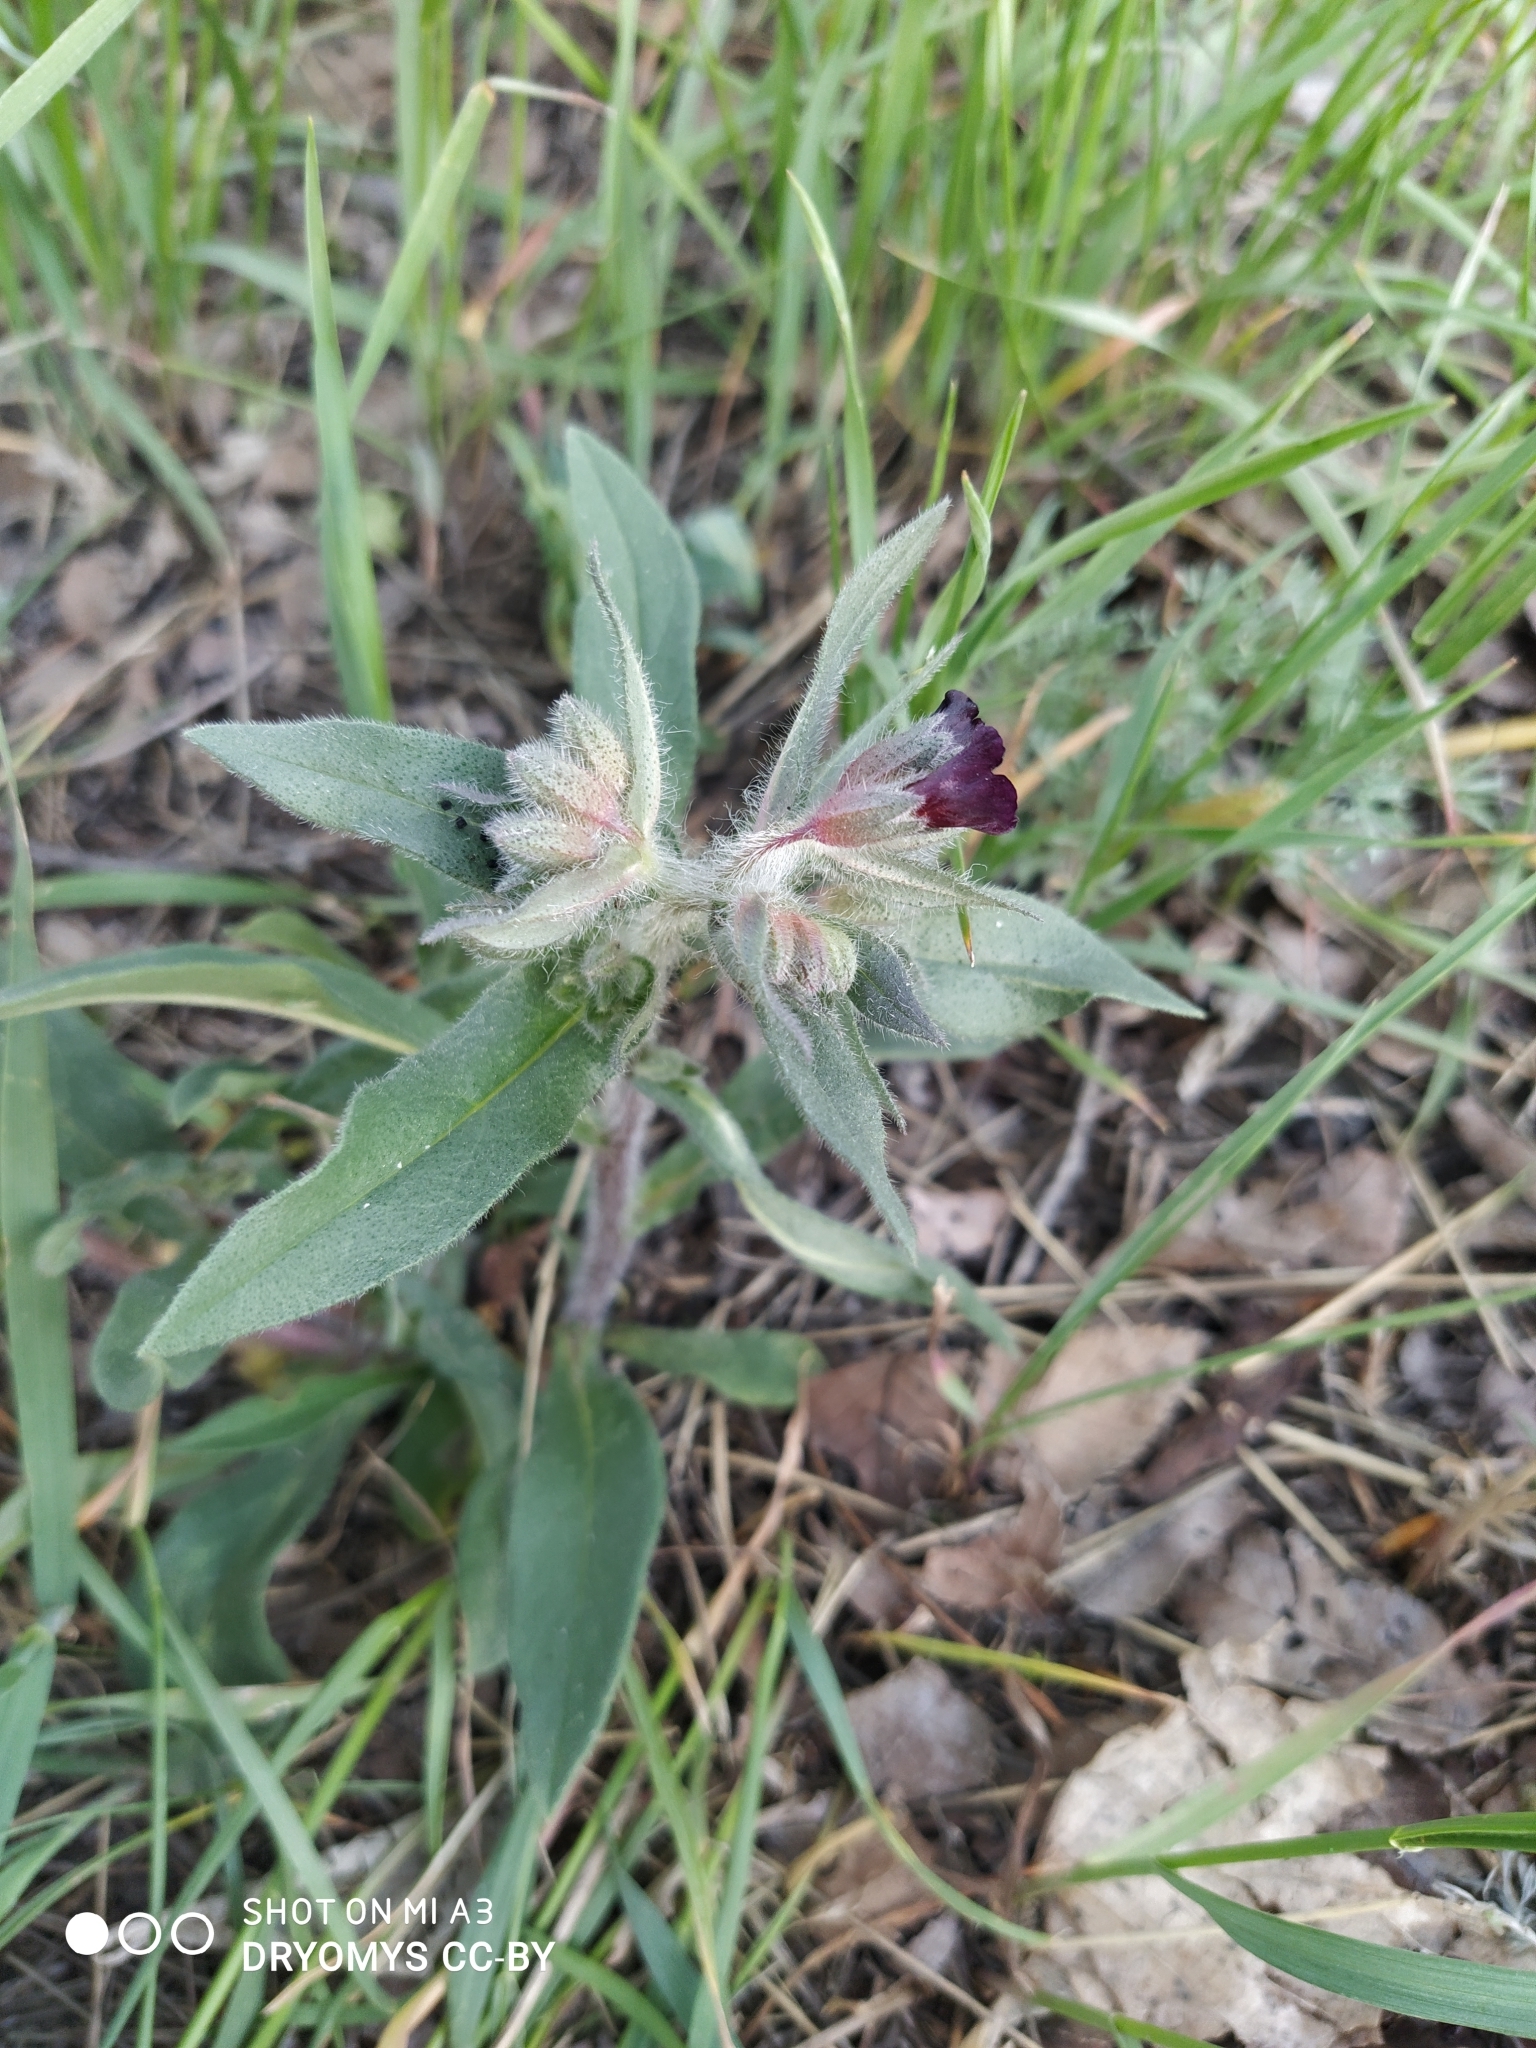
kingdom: Plantae
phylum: Tracheophyta
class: Magnoliopsida
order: Boraginales
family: Boraginaceae
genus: Nonea
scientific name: Nonea pulla
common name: Brown nonea
